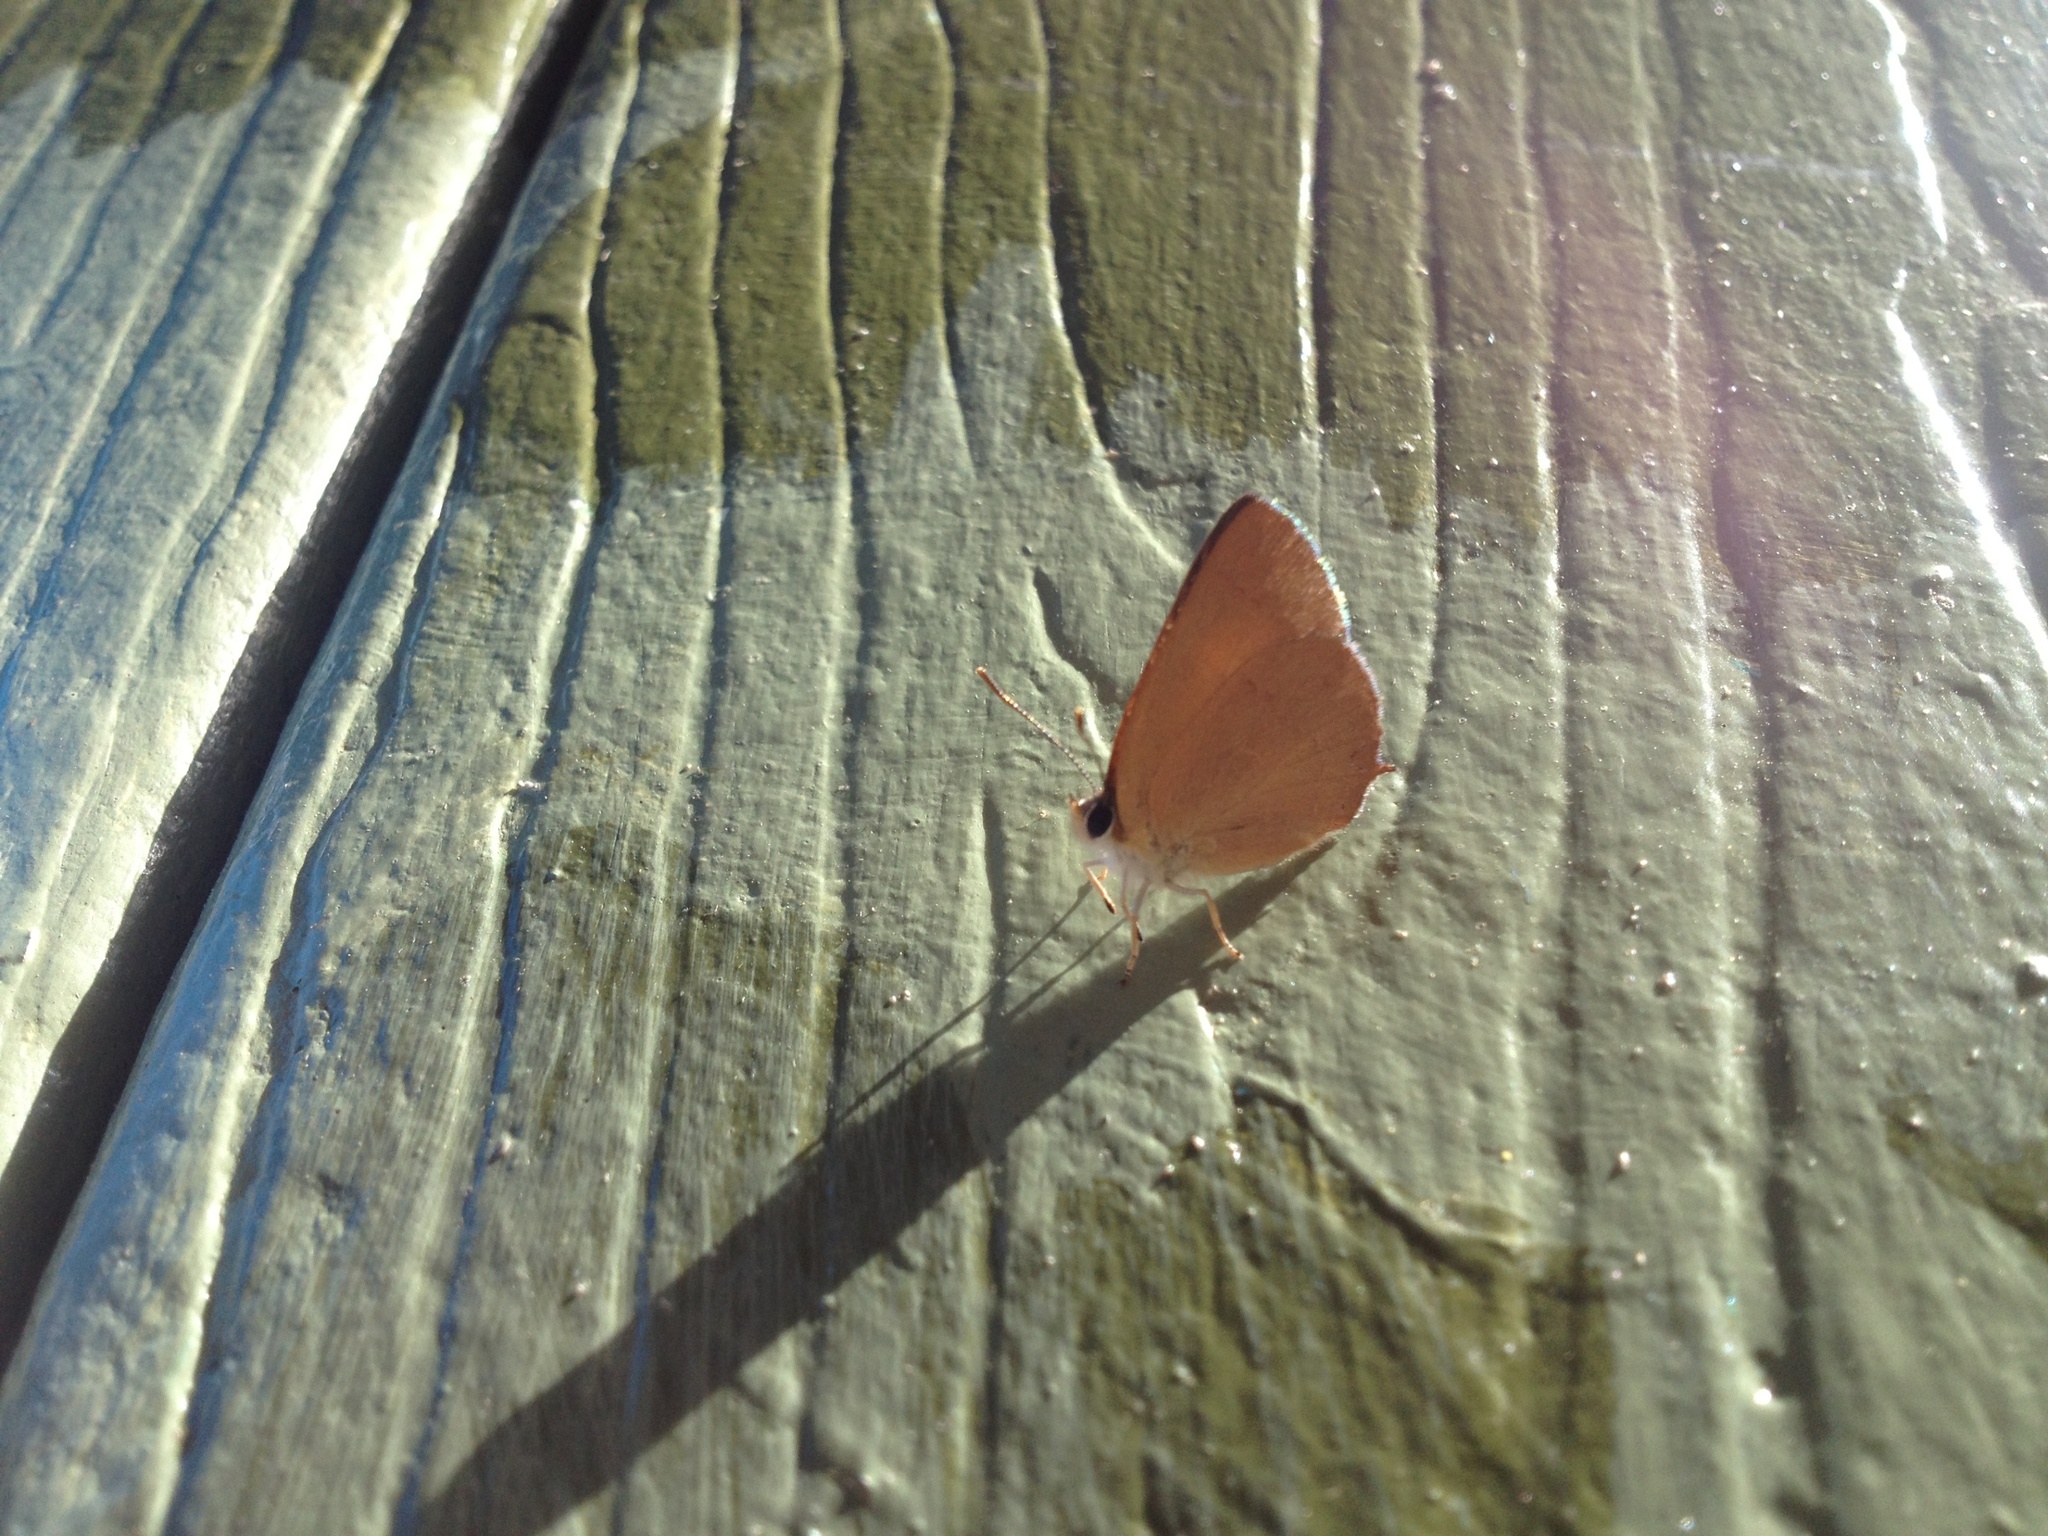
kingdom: Animalia
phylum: Arthropoda
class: Insecta
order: Lepidoptera
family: Lycaenidae
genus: Habrodais
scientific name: Habrodais grunus
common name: Golden hairstreak
